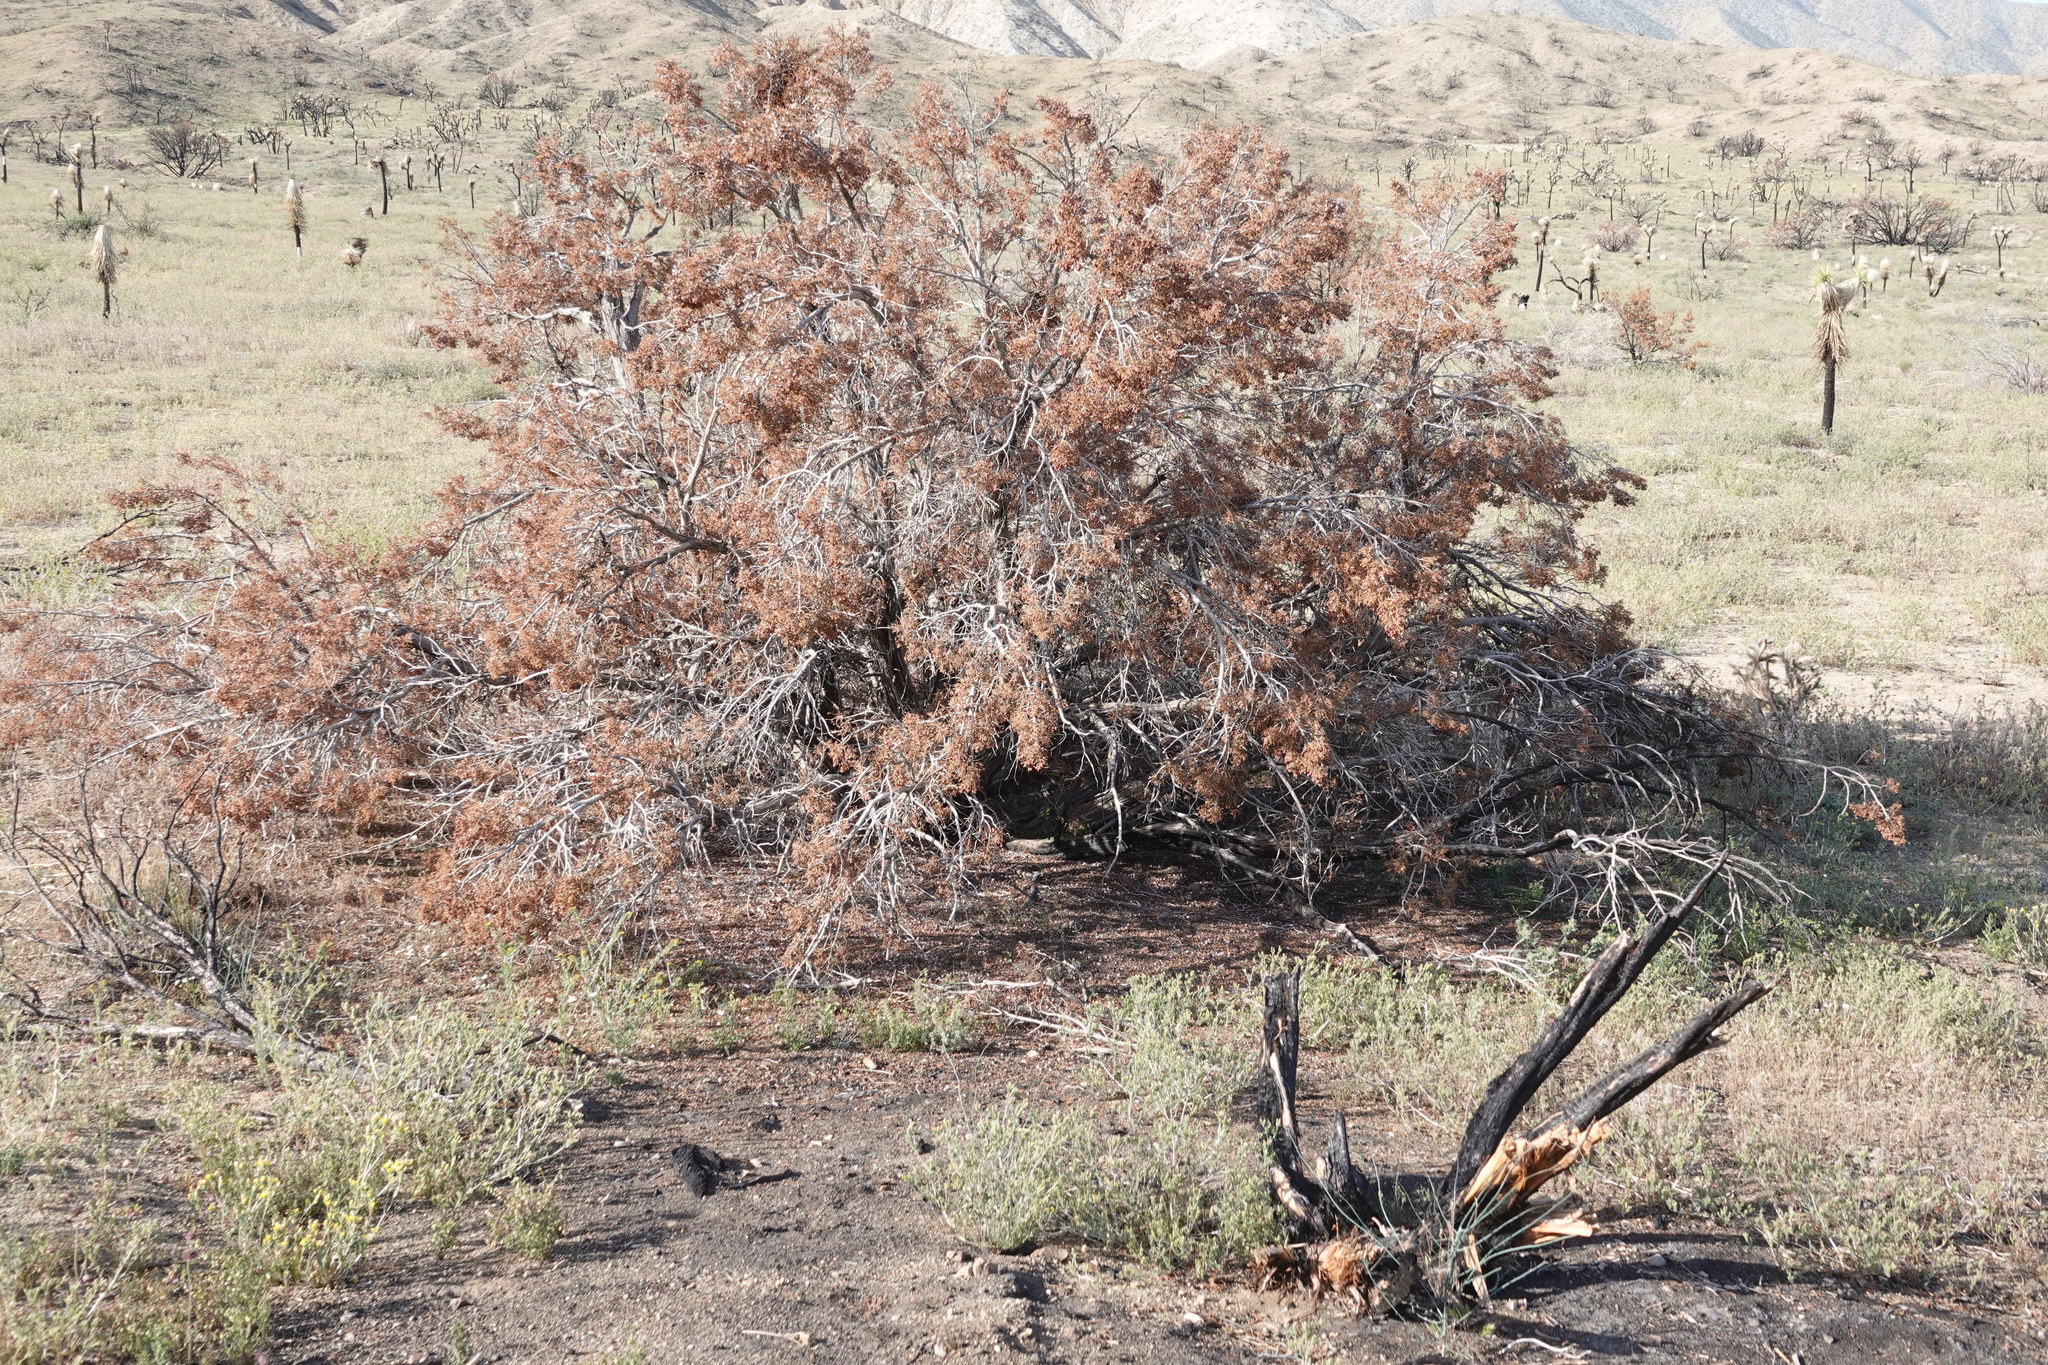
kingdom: Plantae
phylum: Tracheophyta
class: Pinopsida
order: Pinales
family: Cupressaceae
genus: Juniperus
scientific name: Juniperus californica
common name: California juniper
